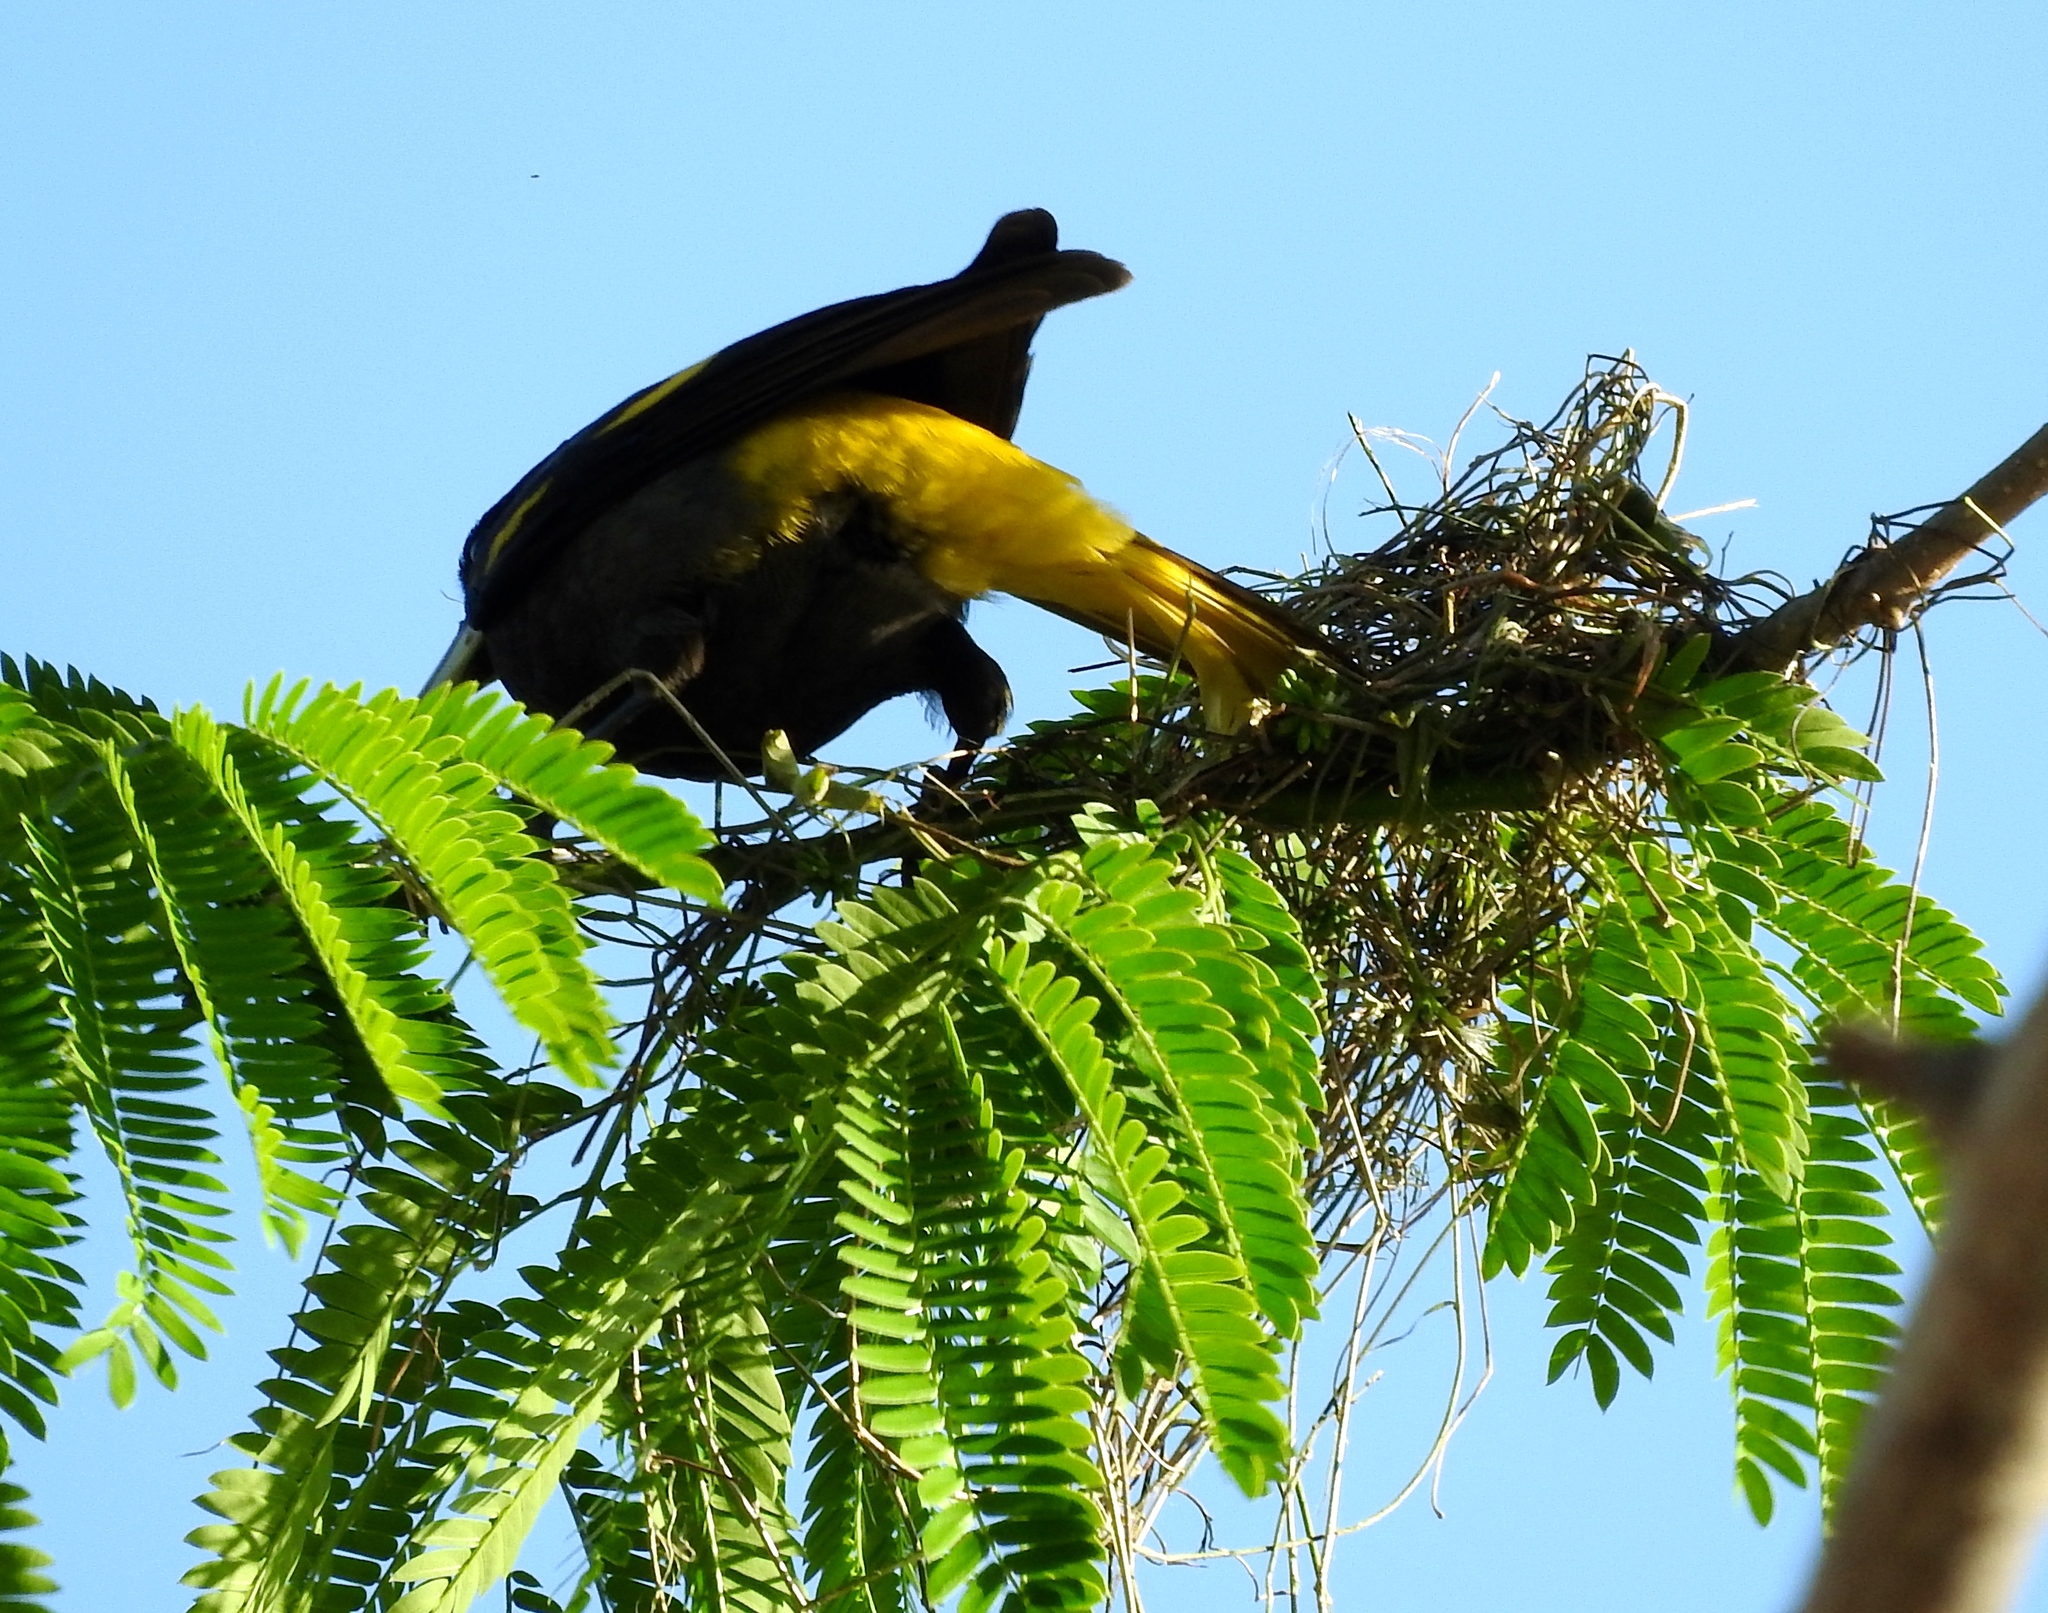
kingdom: Animalia
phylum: Chordata
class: Aves
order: Passeriformes
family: Icteridae
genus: Cacicus
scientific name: Cacicus melanicterus
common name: Yellow-winged cacique
